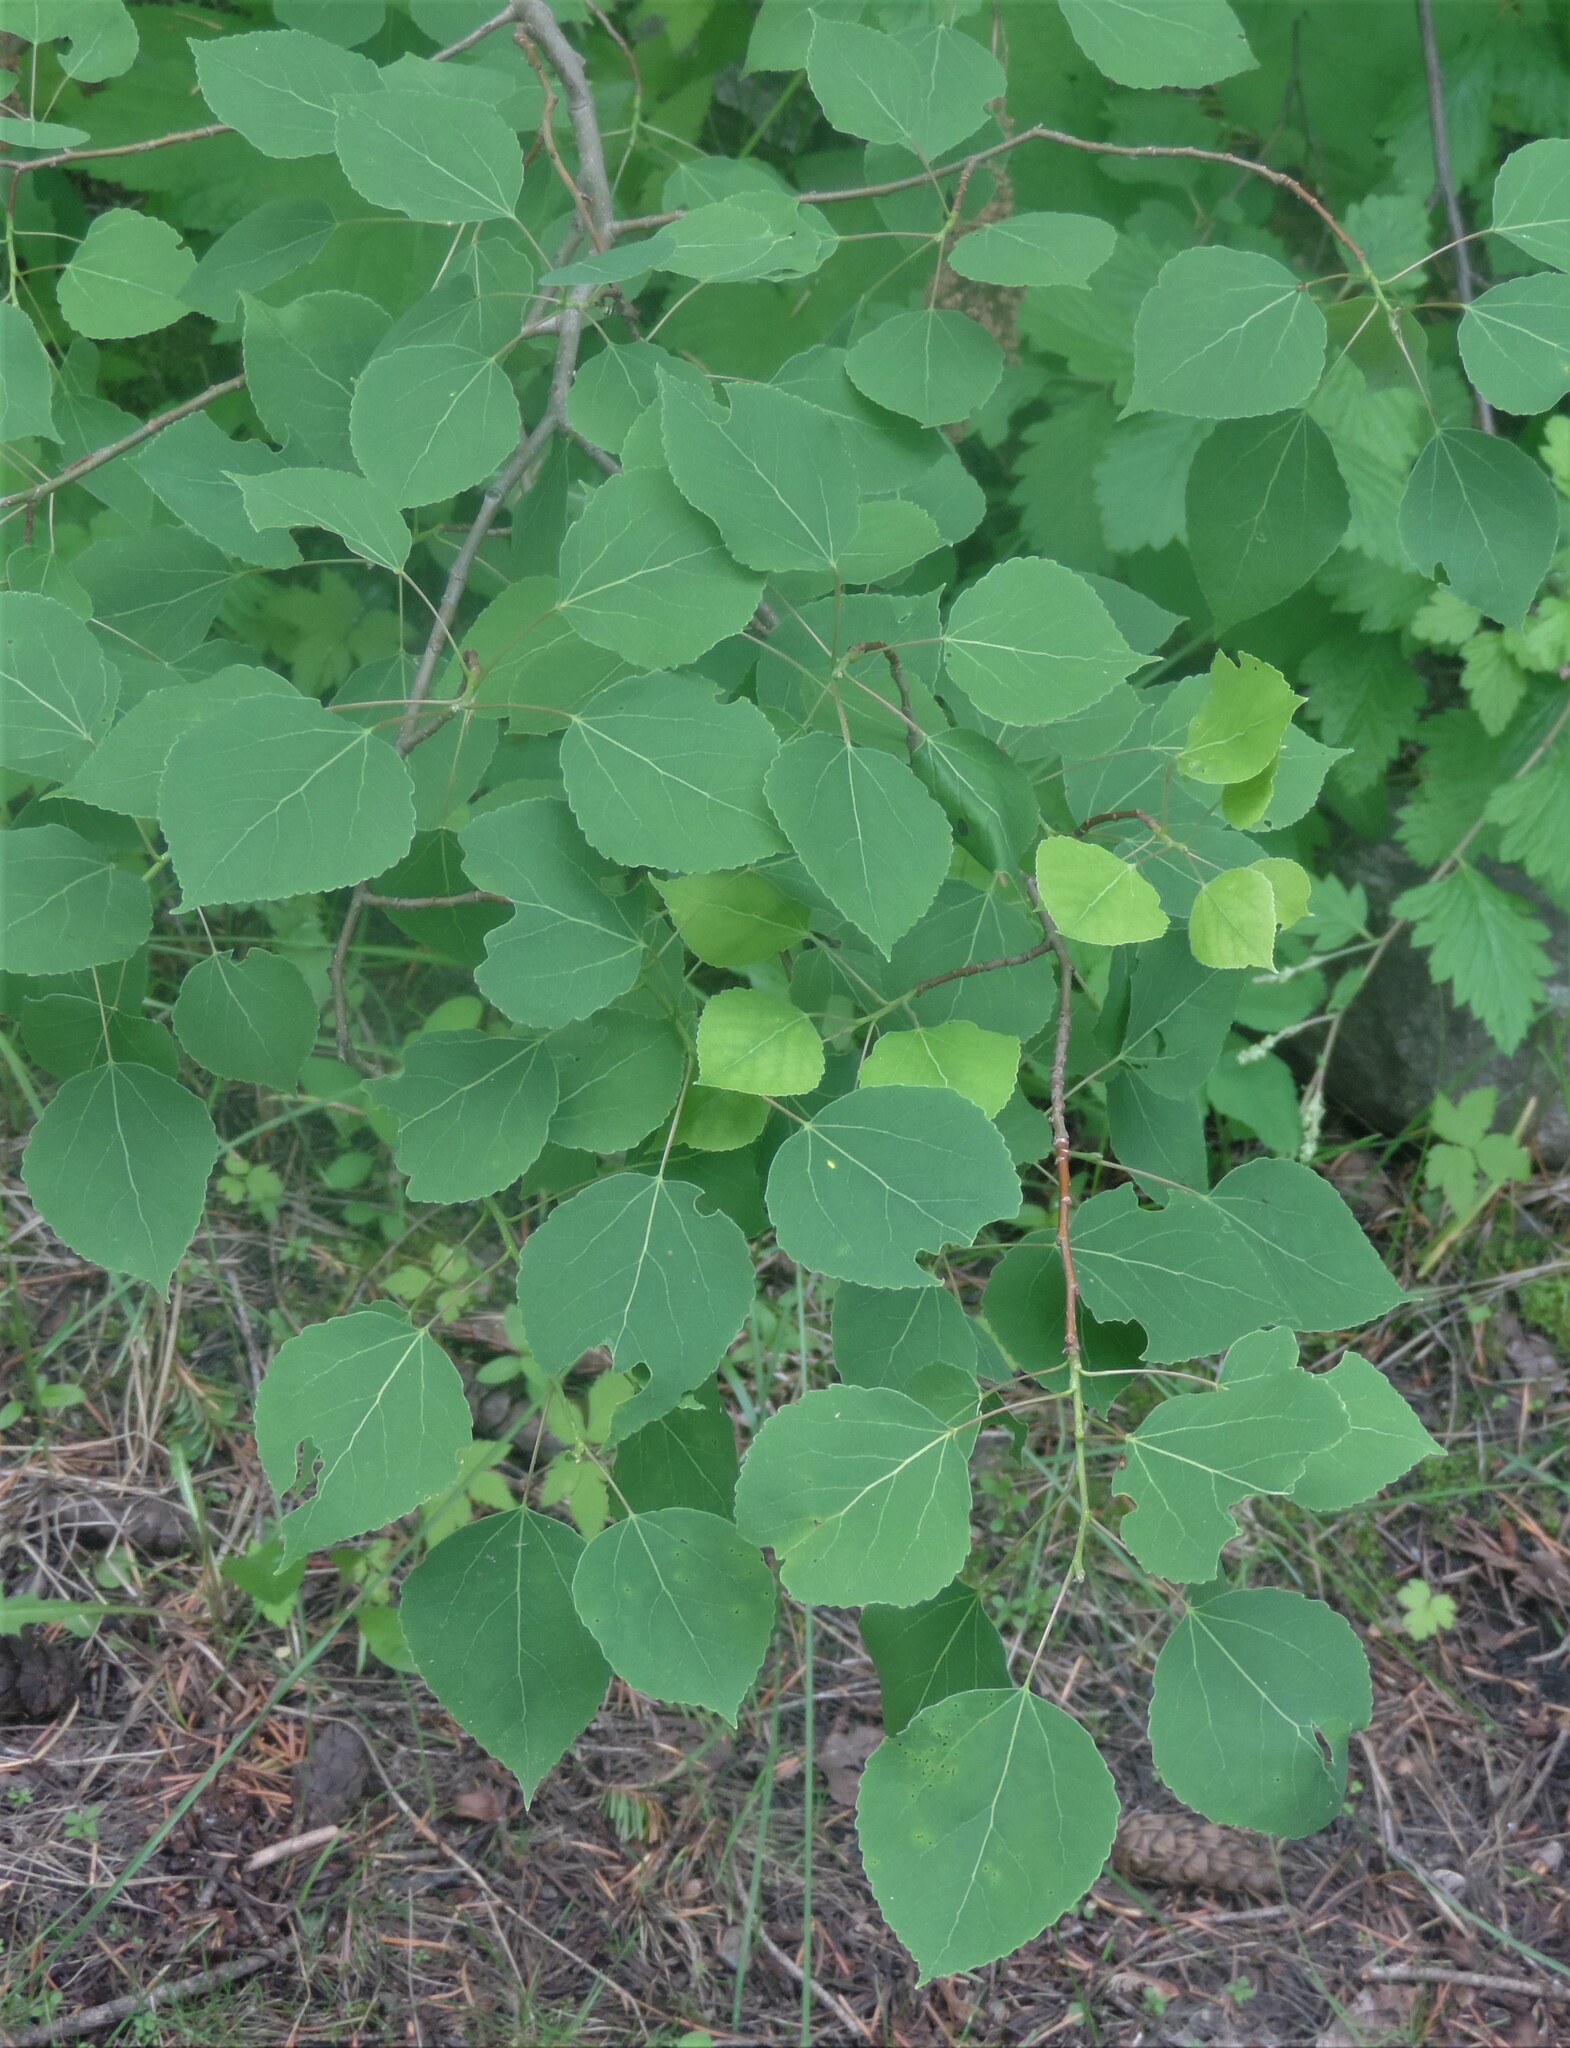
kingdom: Plantae
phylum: Tracheophyta
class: Magnoliopsida
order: Malpighiales
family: Salicaceae
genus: Populus
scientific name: Populus tremuloides
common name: Quaking aspen
